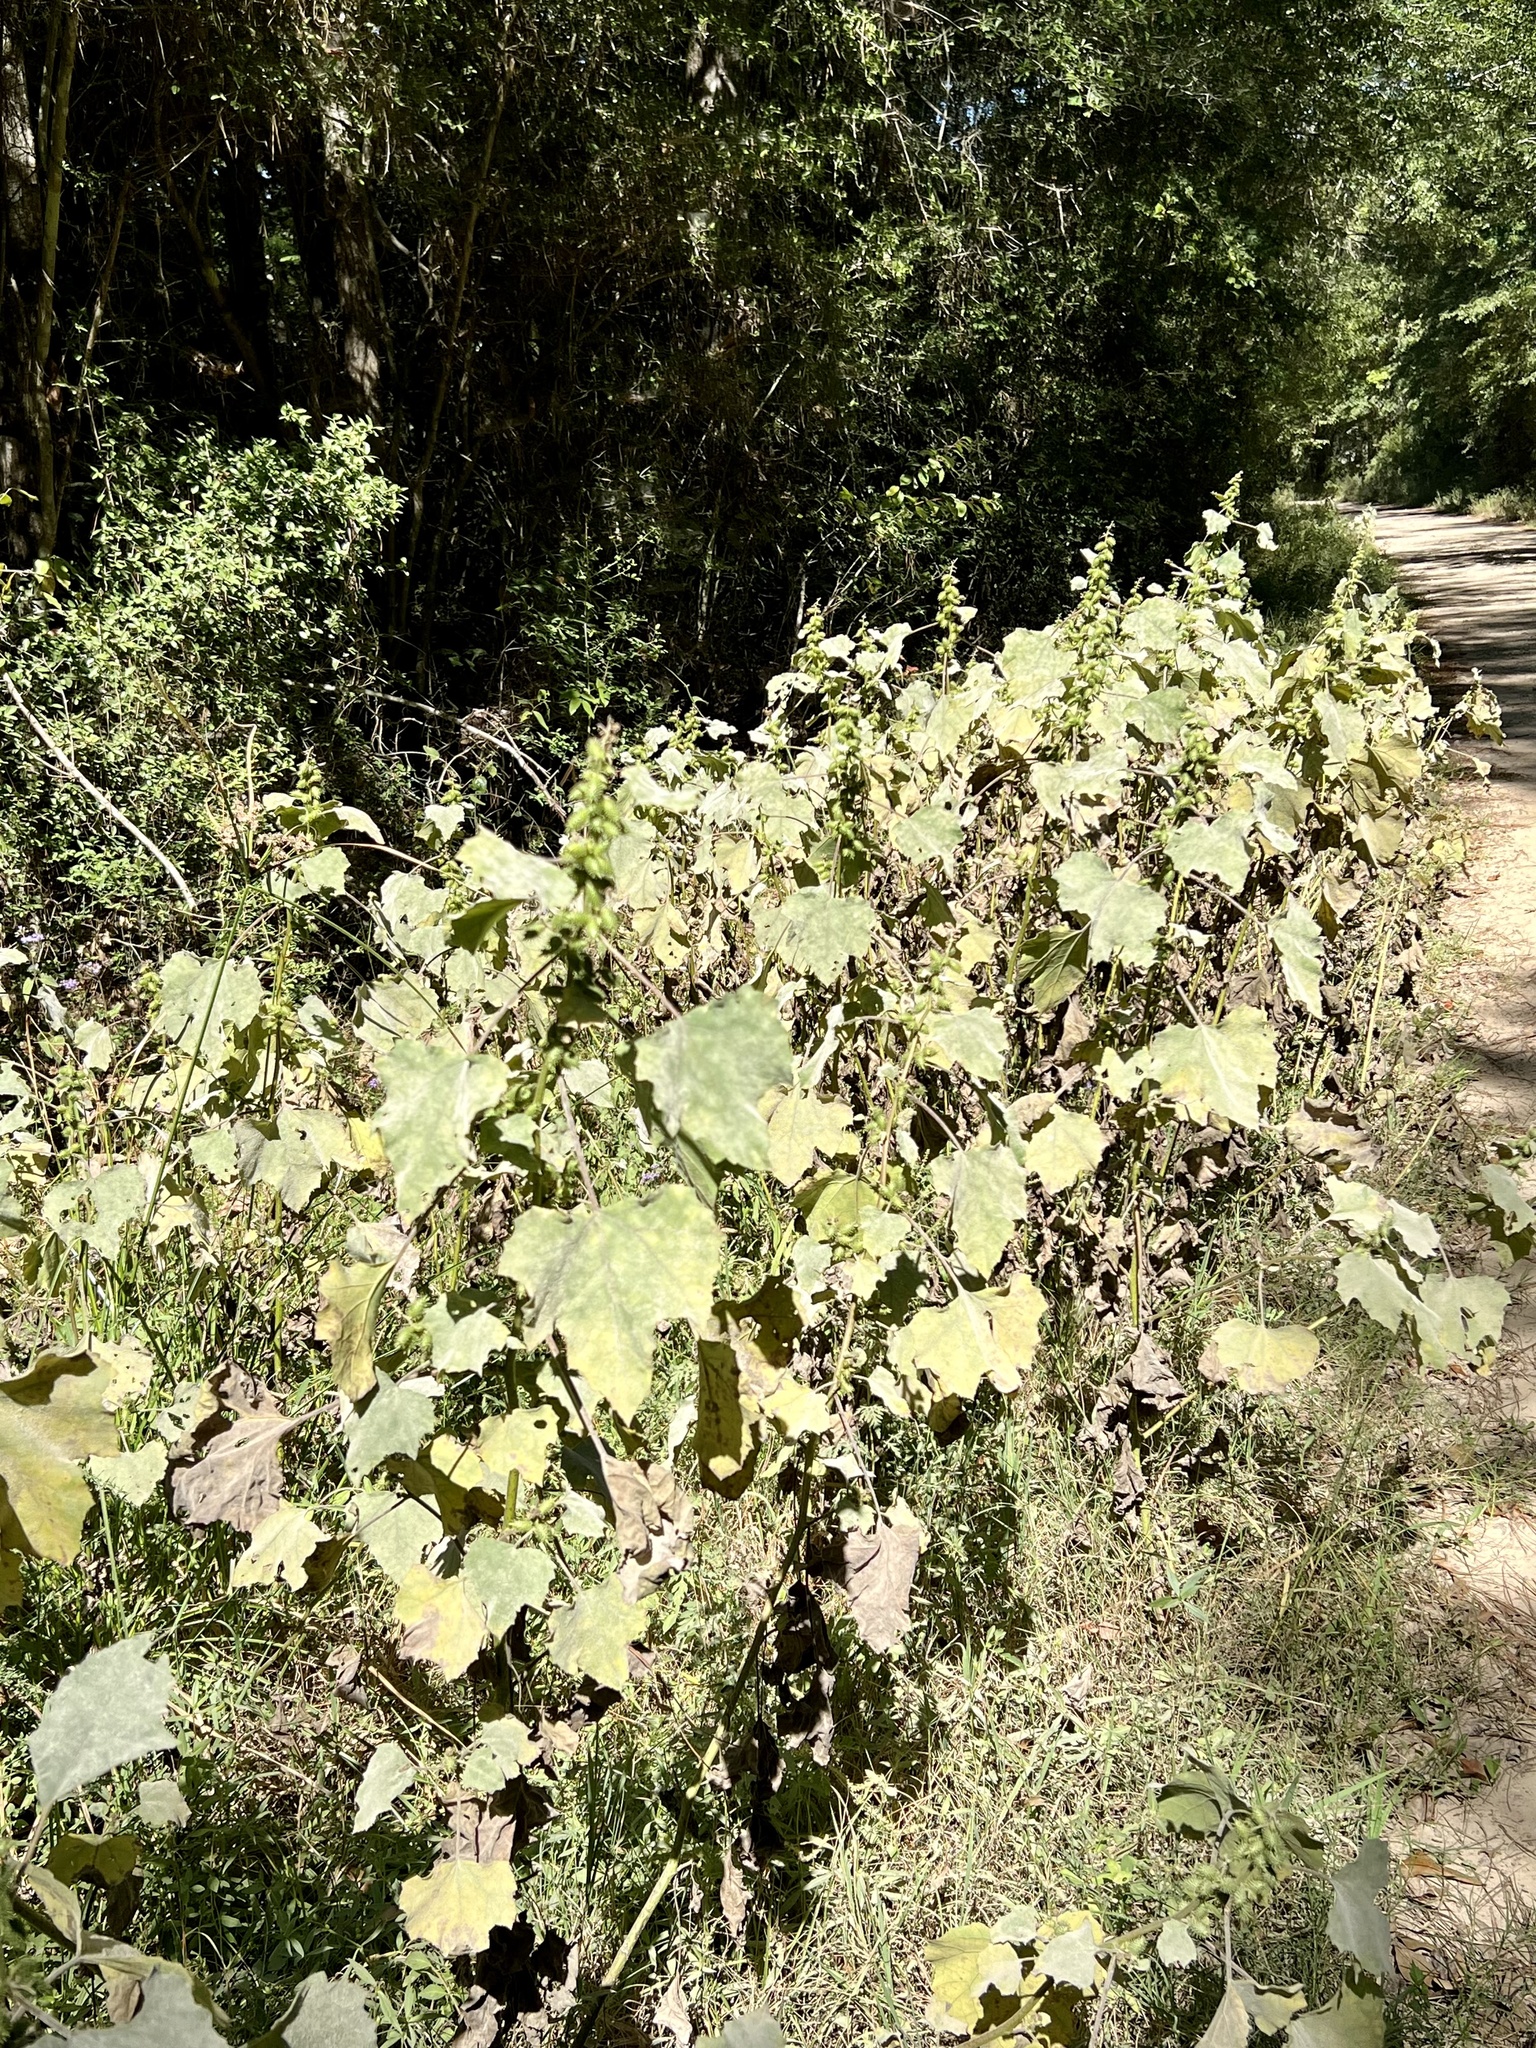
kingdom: Plantae
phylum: Tracheophyta
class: Magnoliopsida
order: Asterales
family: Asteraceae
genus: Xanthium
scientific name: Xanthium strumarium
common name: Rough cocklebur
